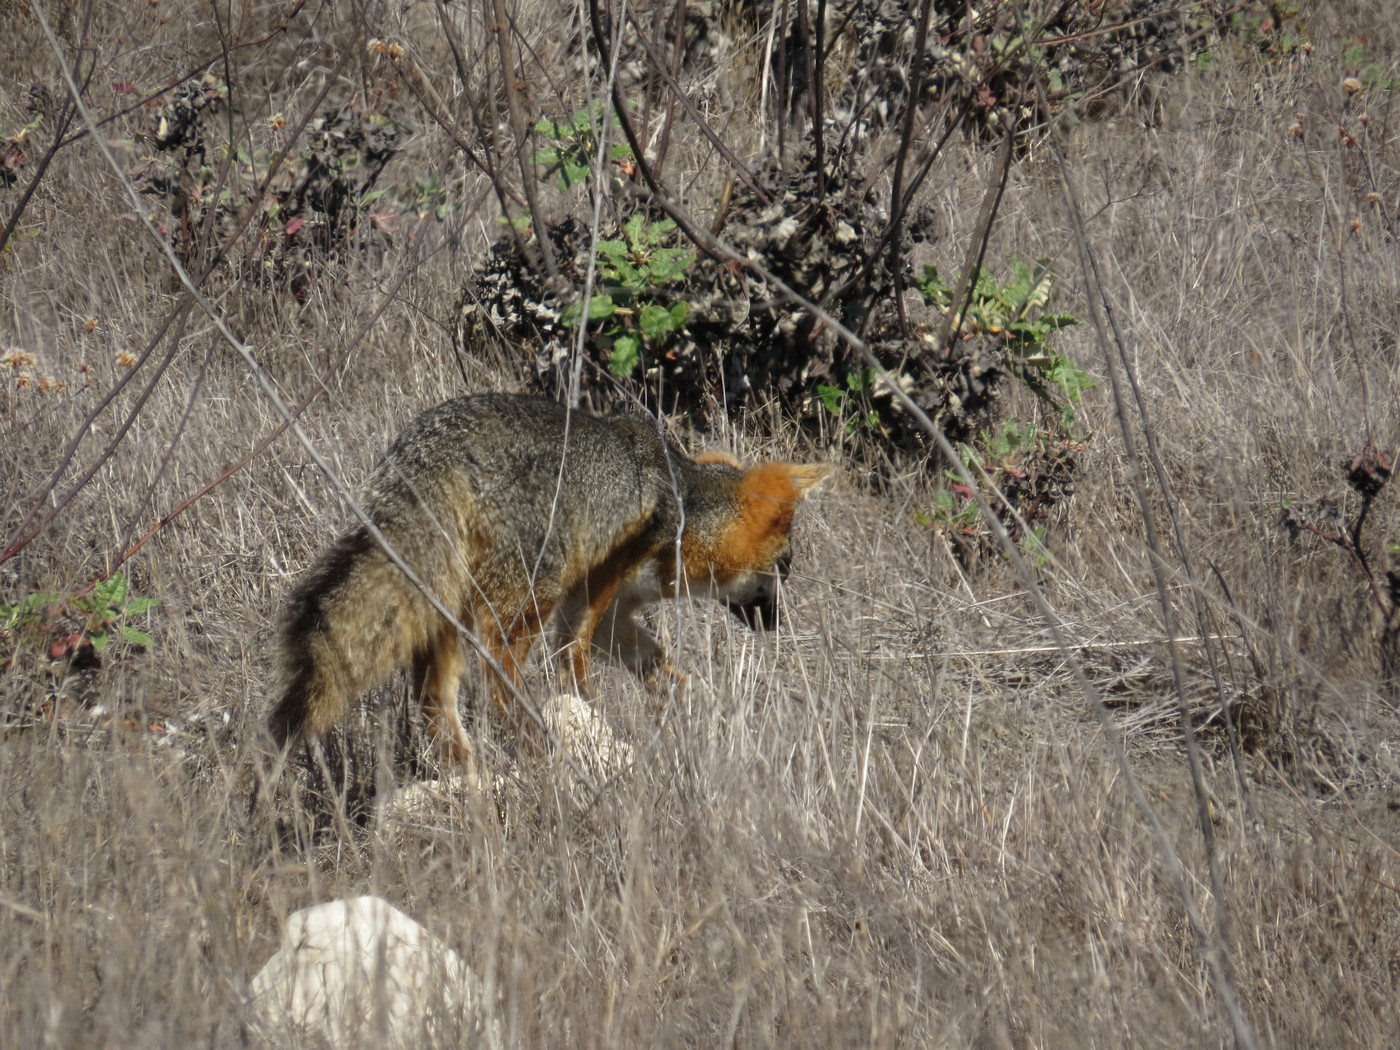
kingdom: Animalia
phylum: Chordata
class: Mammalia
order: Carnivora
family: Canidae
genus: Urocyon
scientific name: Urocyon littoralis
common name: Island gray fox
